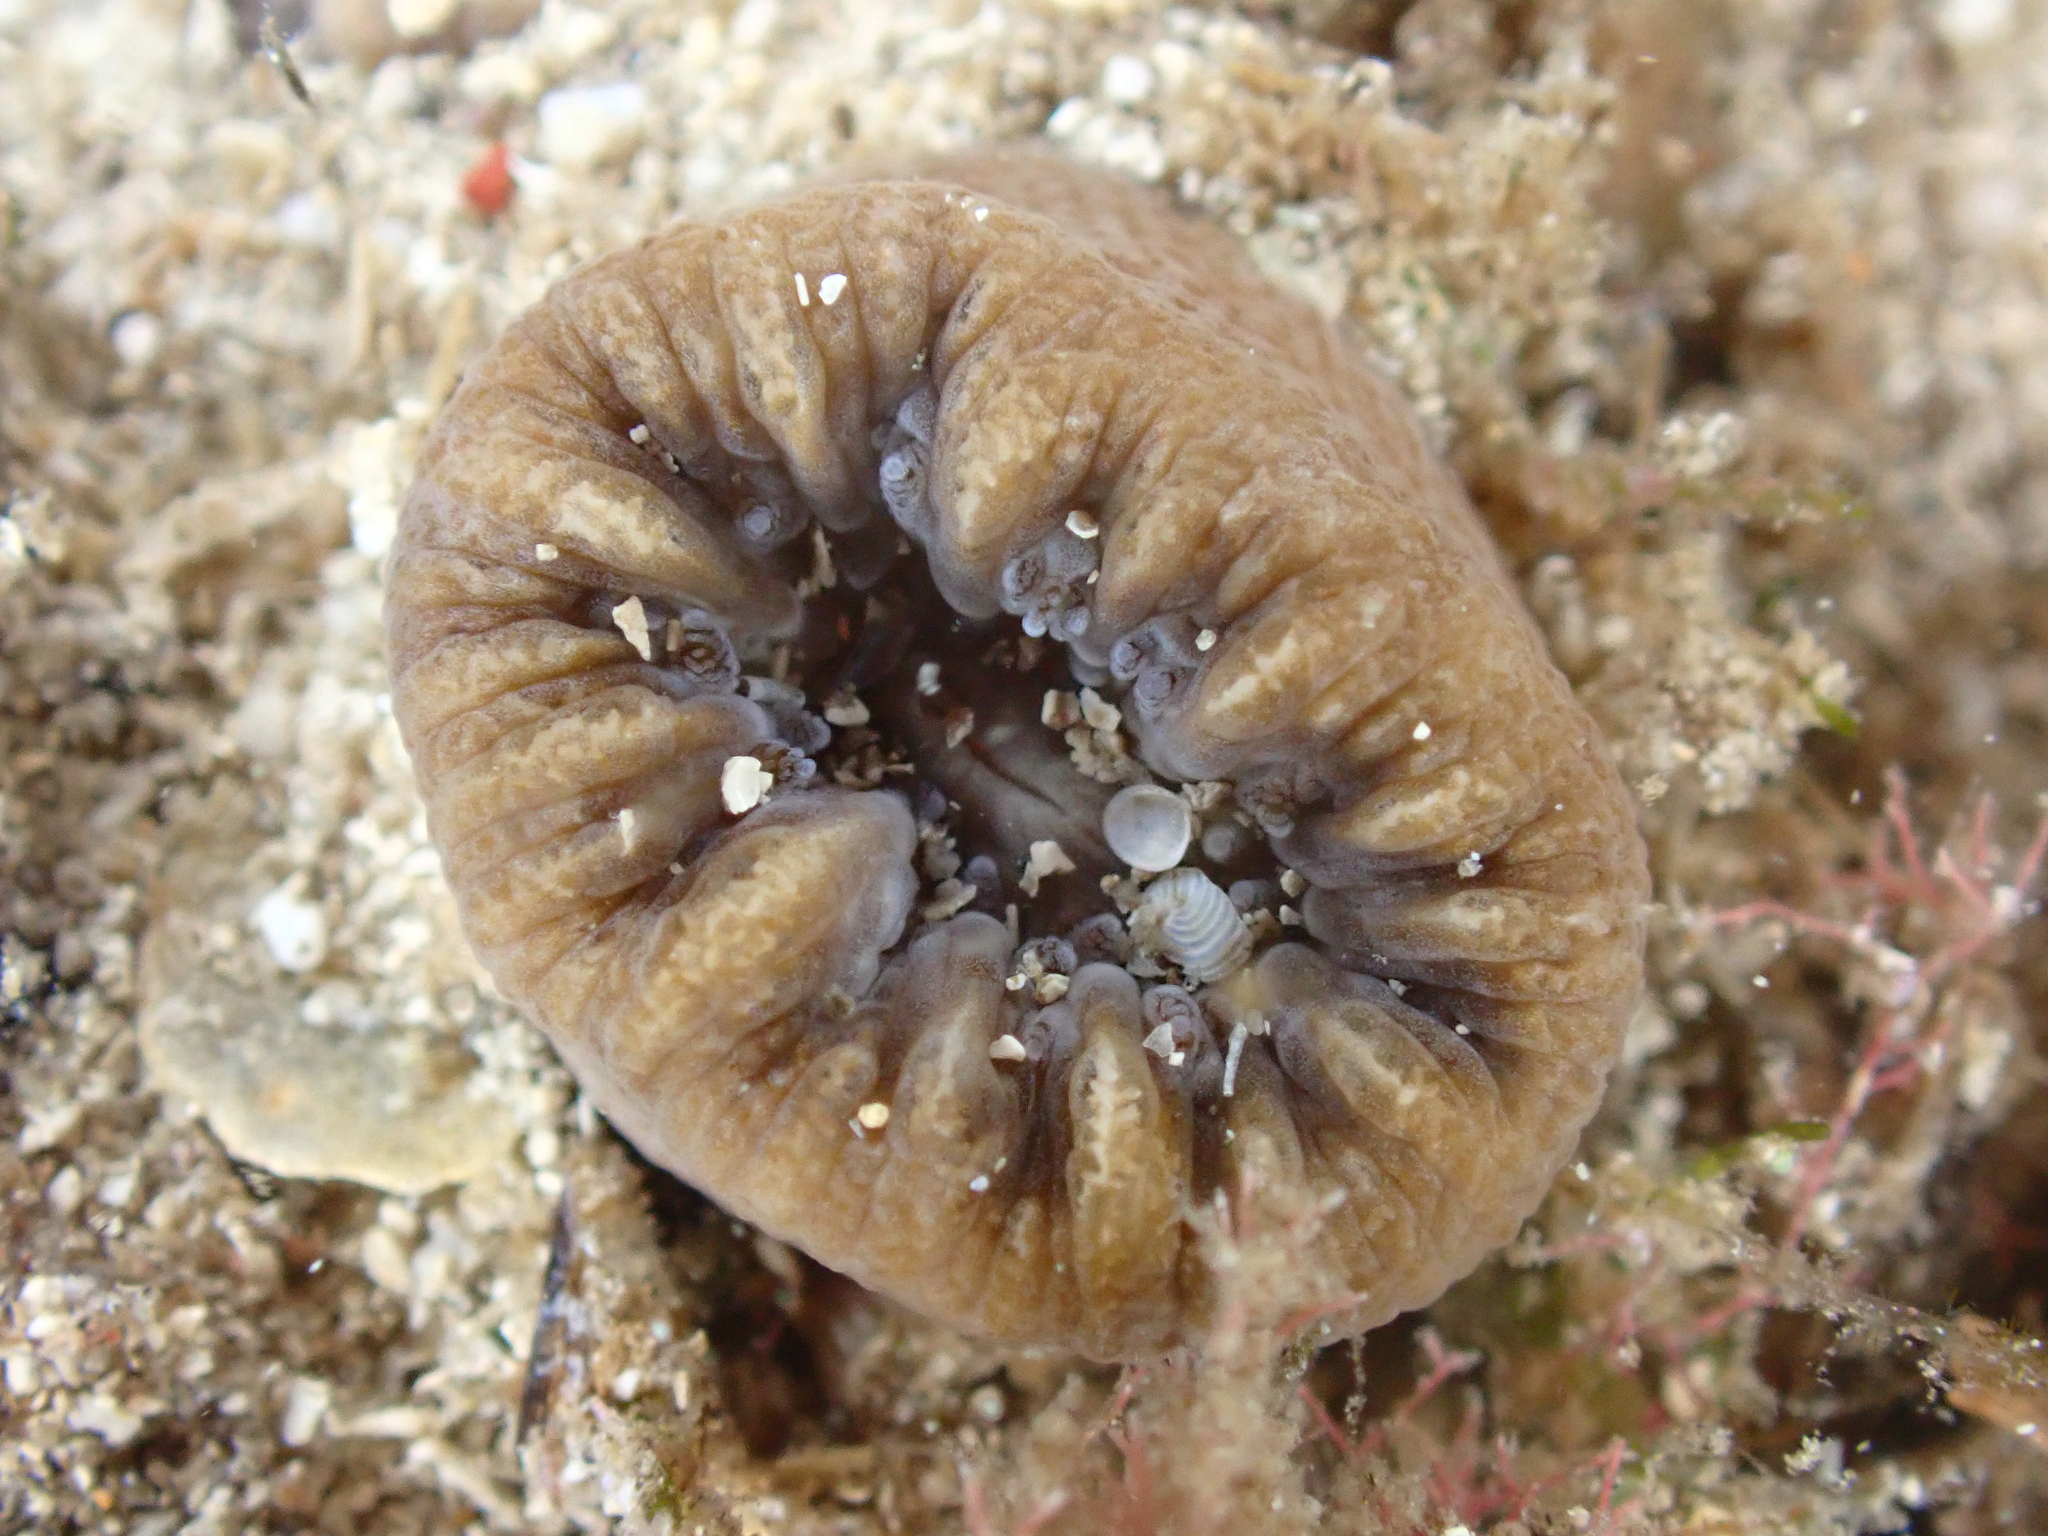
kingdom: Animalia
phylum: Cnidaria
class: Anthozoa
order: Scleractinia
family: Dendrophylliidae
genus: Balanophyllia
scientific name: Balanophyllia europaea
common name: Scarlet coral
